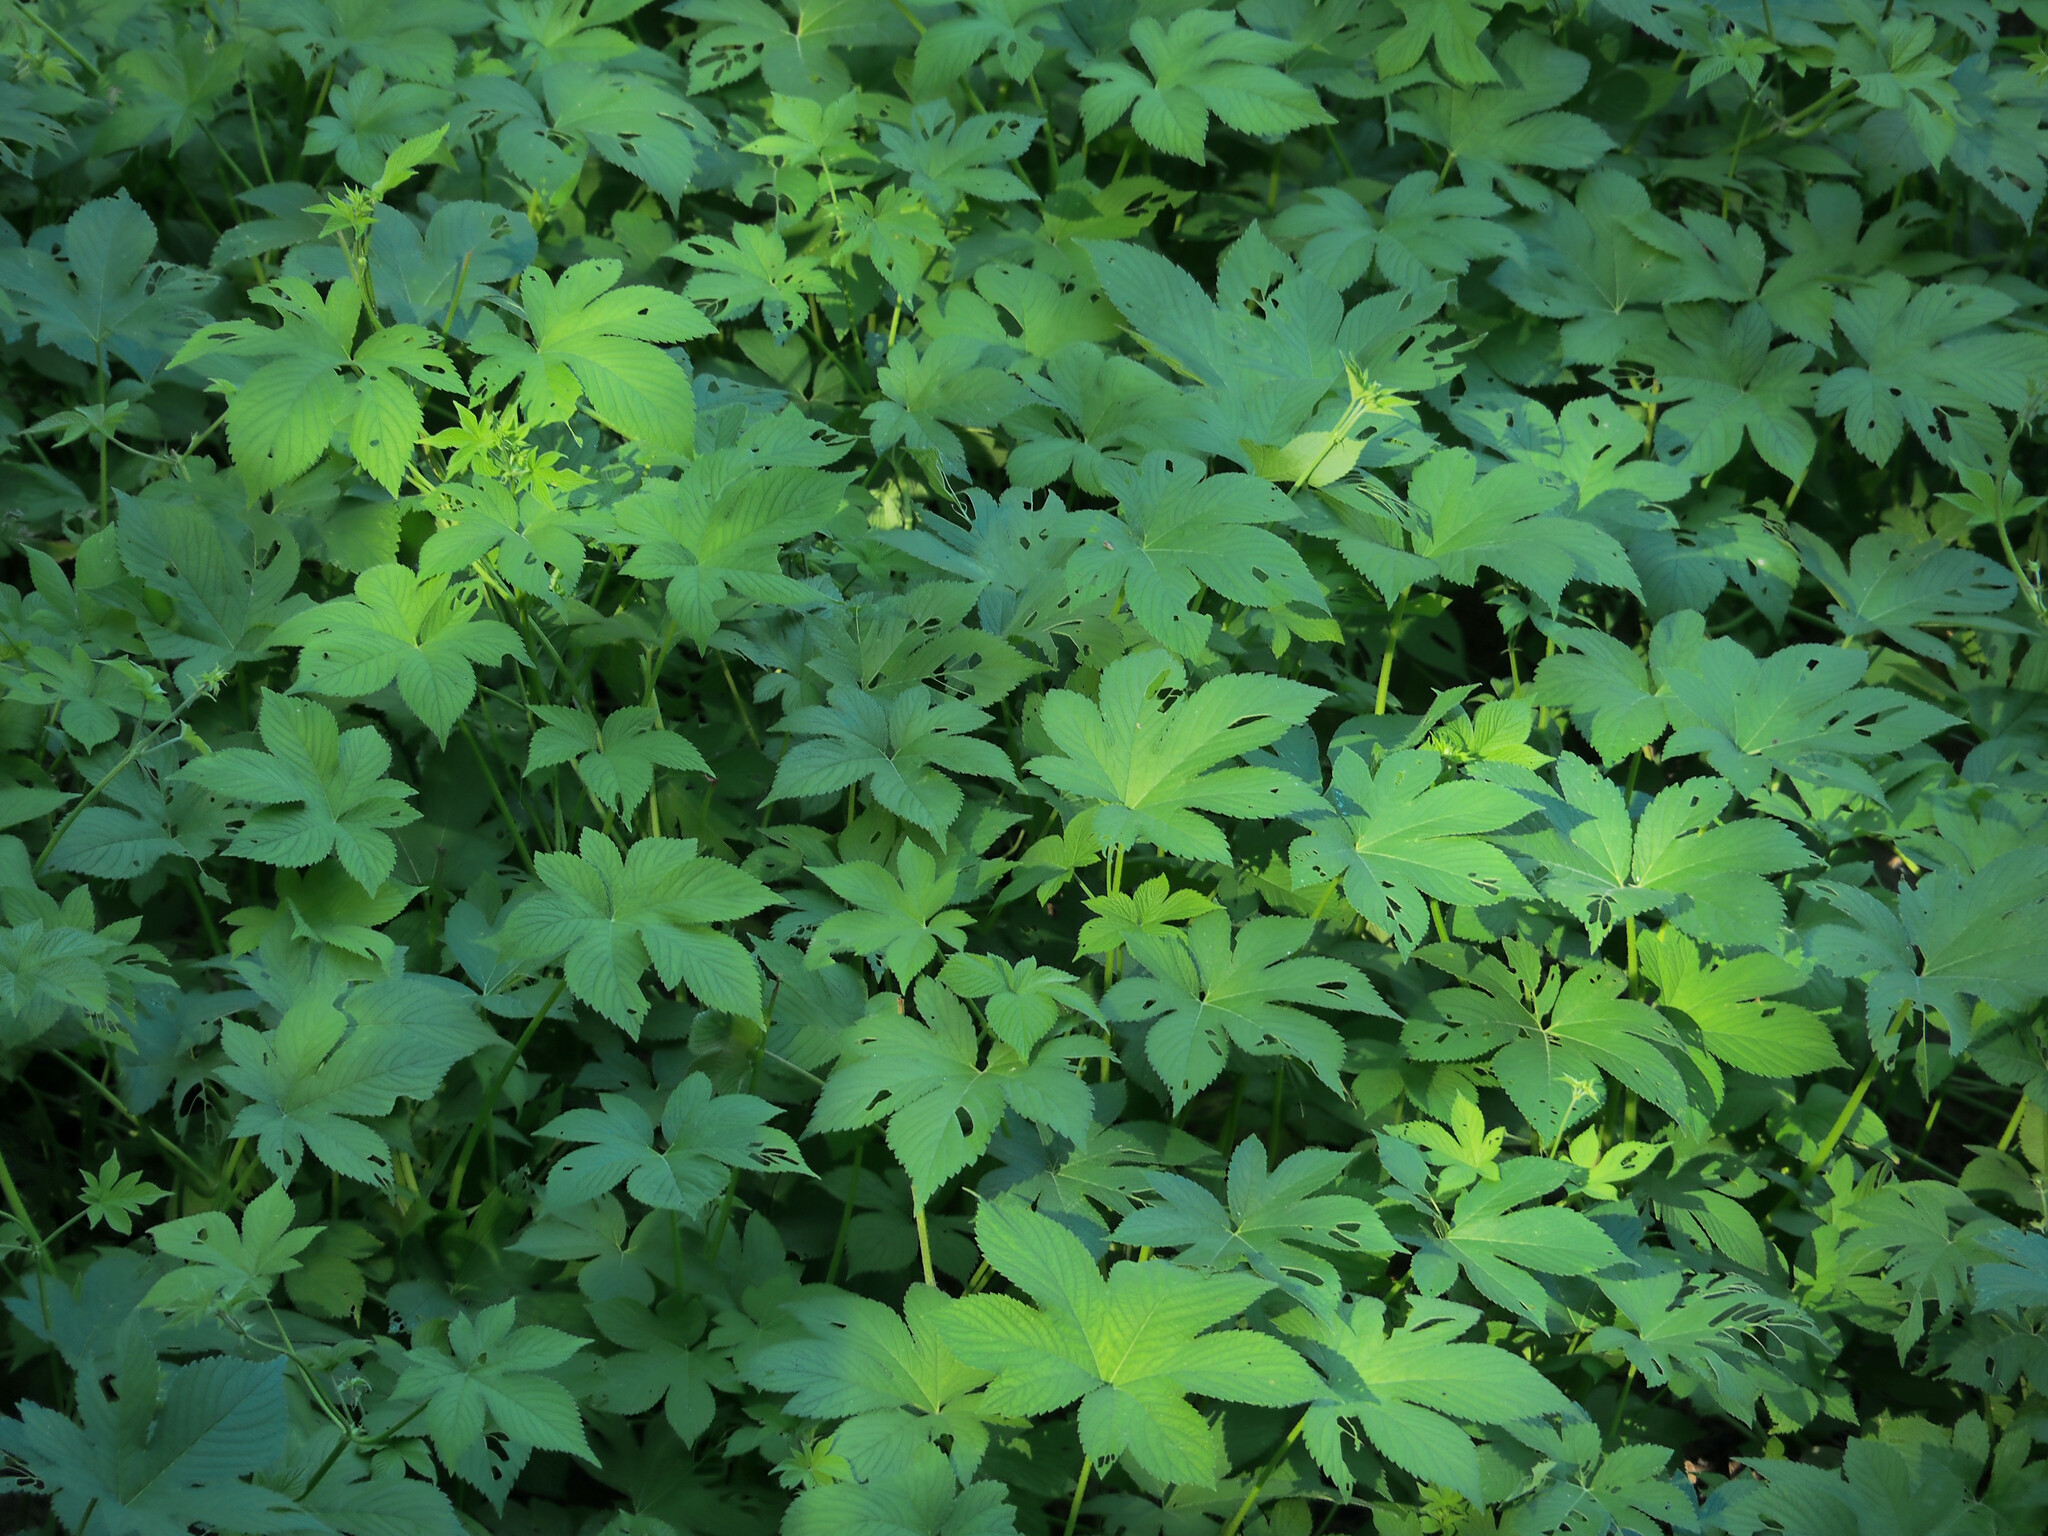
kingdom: Plantae
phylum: Tracheophyta
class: Magnoliopsida
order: Rosales
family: Cannabaceae
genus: Humulus
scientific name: Humulus scandens
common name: Japanese hop
